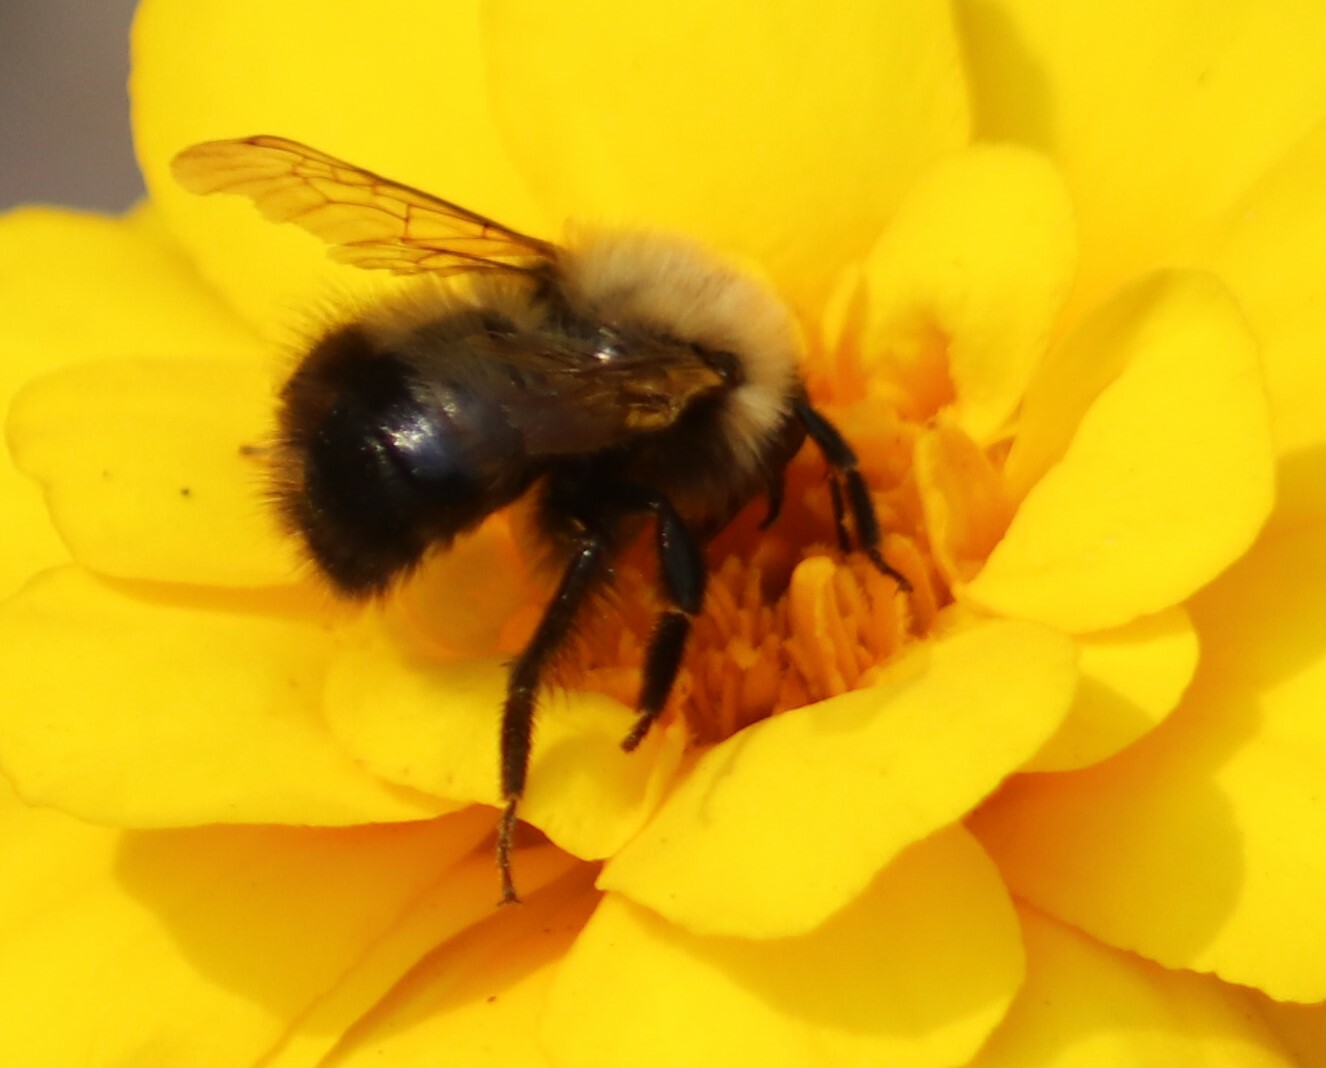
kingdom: Animalia
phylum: Arthropoda
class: Insecta
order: Hymenoptera
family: Apidae
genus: Bombus
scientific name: Bombus perplexus
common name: Confusing bumble bee
